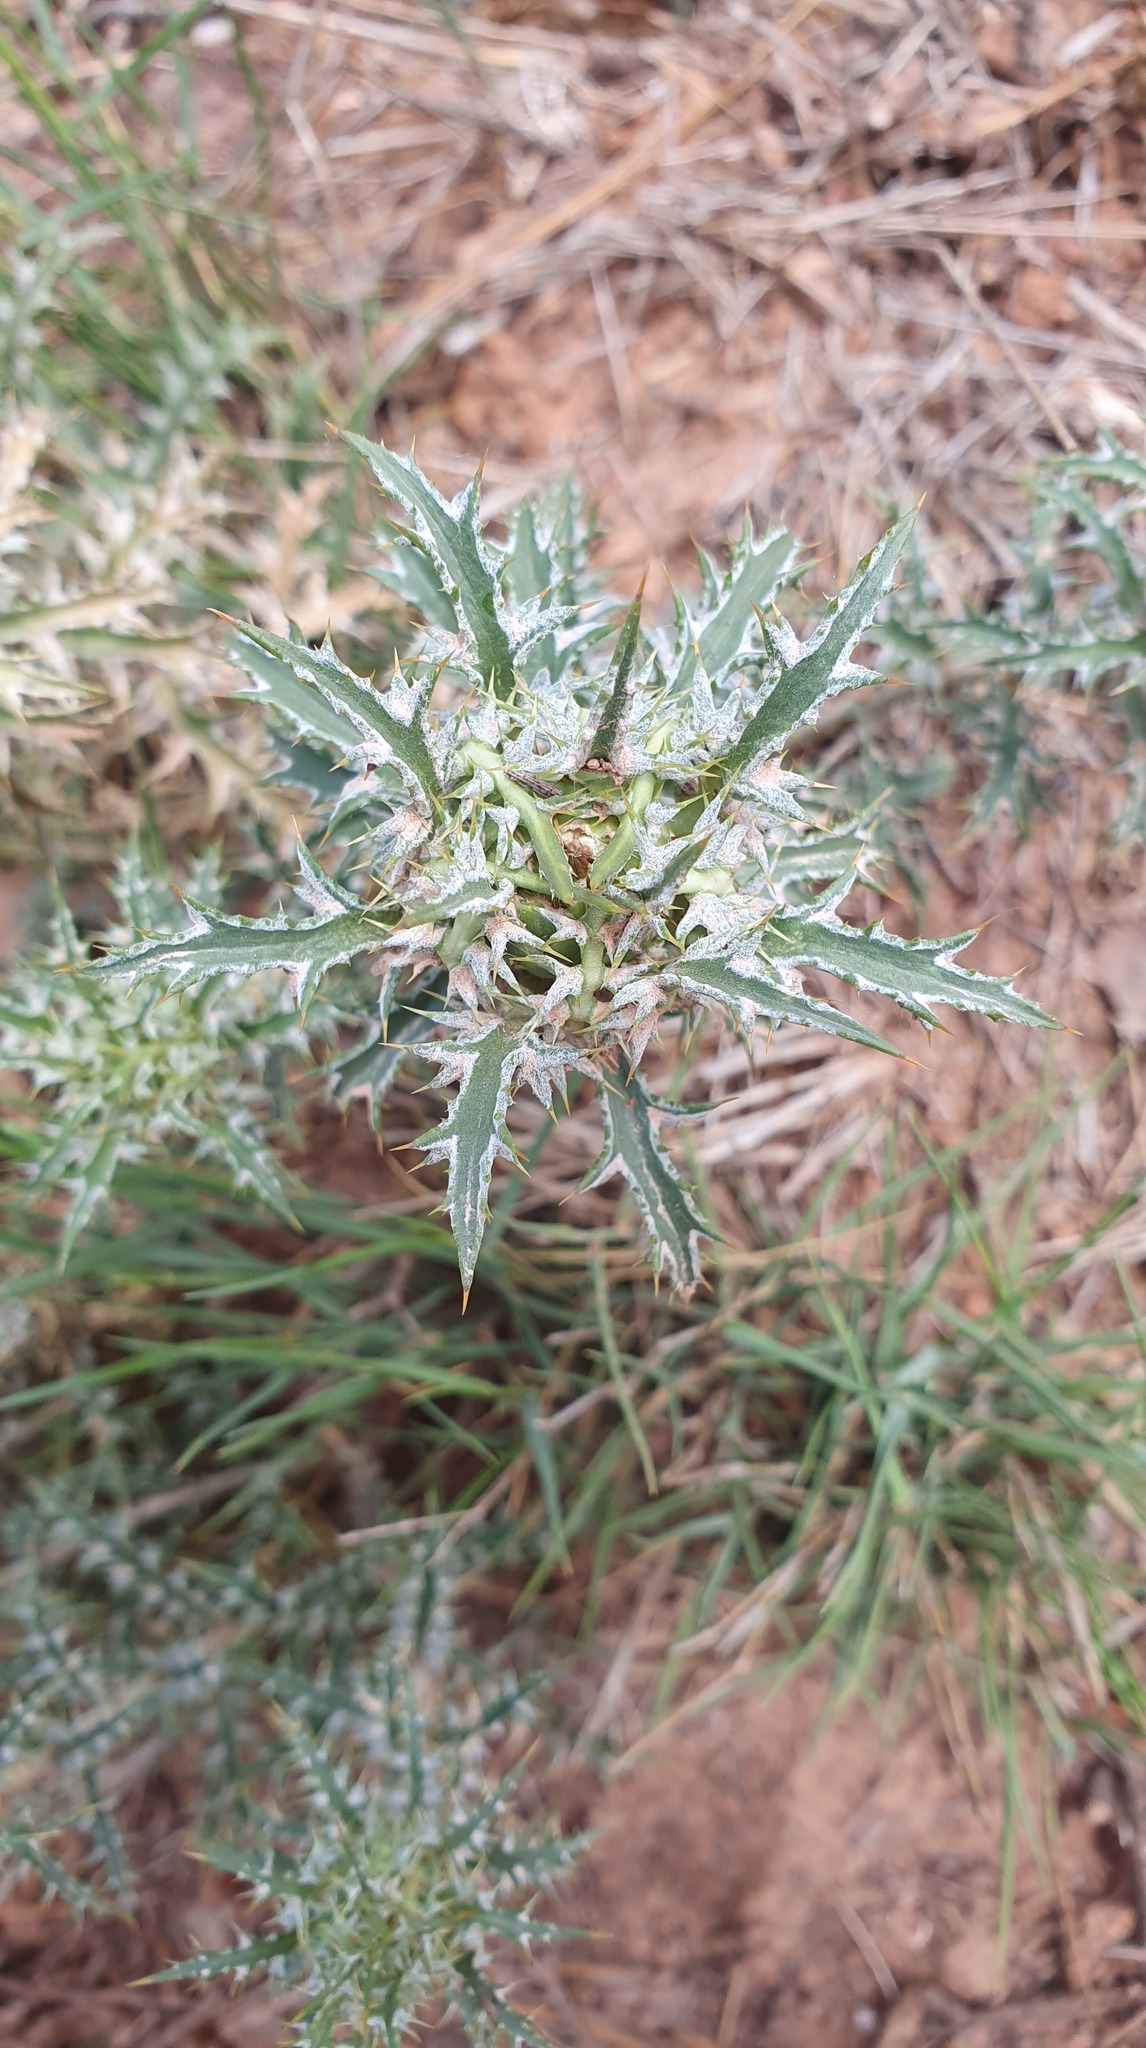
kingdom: Plantae
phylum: Tracheophyta
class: Magnoliopsida
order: Asterales
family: Asteraceae
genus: Atractylis
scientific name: Atractylis humilis
